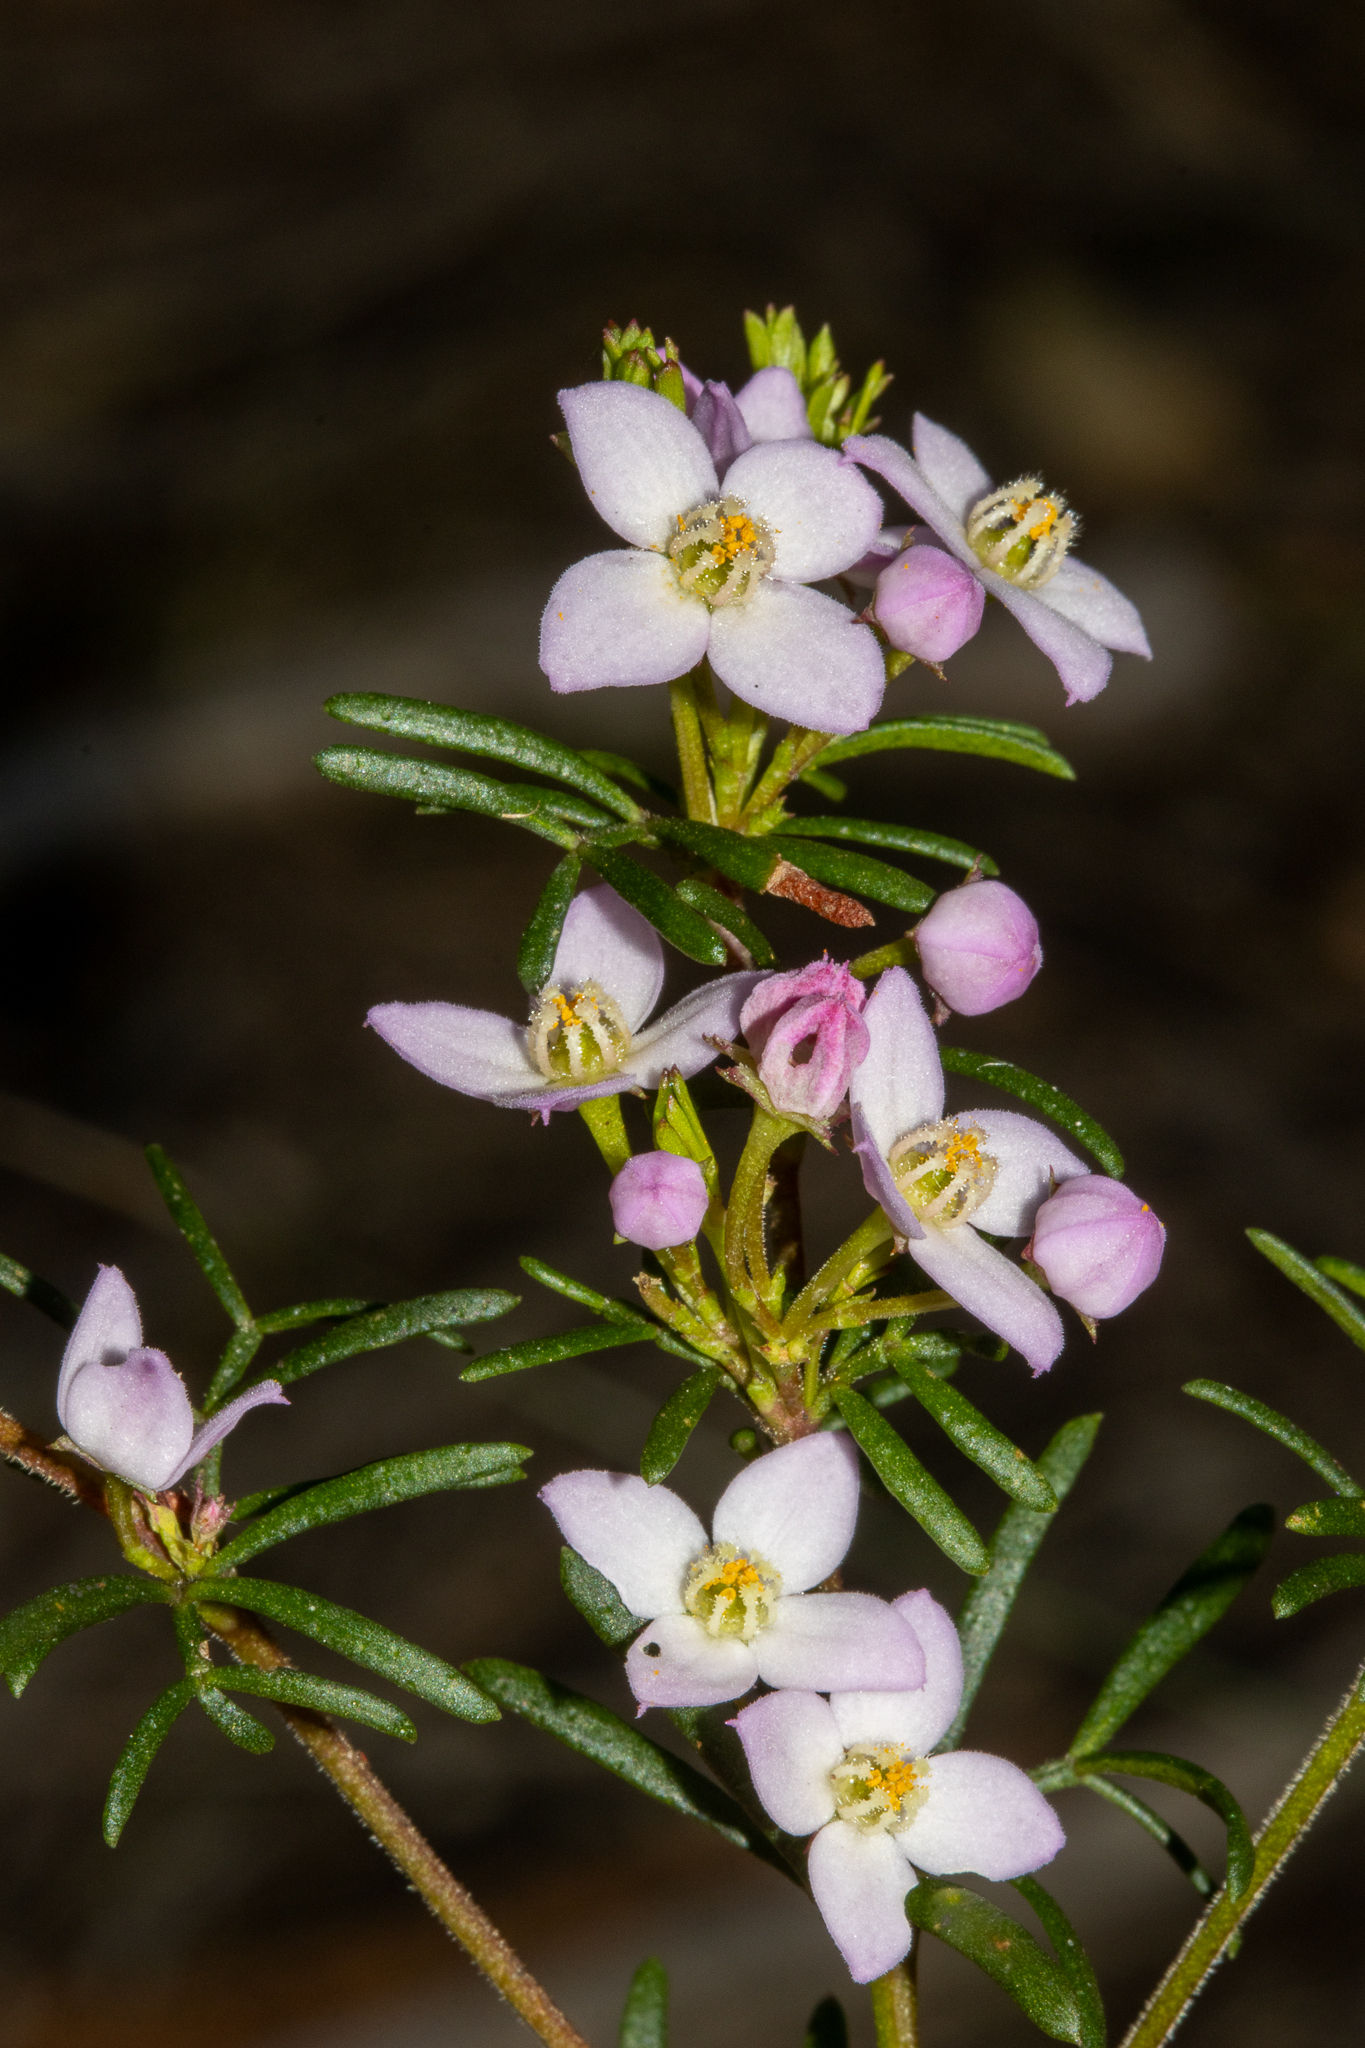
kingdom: Plantae
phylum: Tracheophyta
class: Magnoliopsida
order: Sapindales
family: Rutaceae
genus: Boronia
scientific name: Boronia pilosa
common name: Hairy boronia
